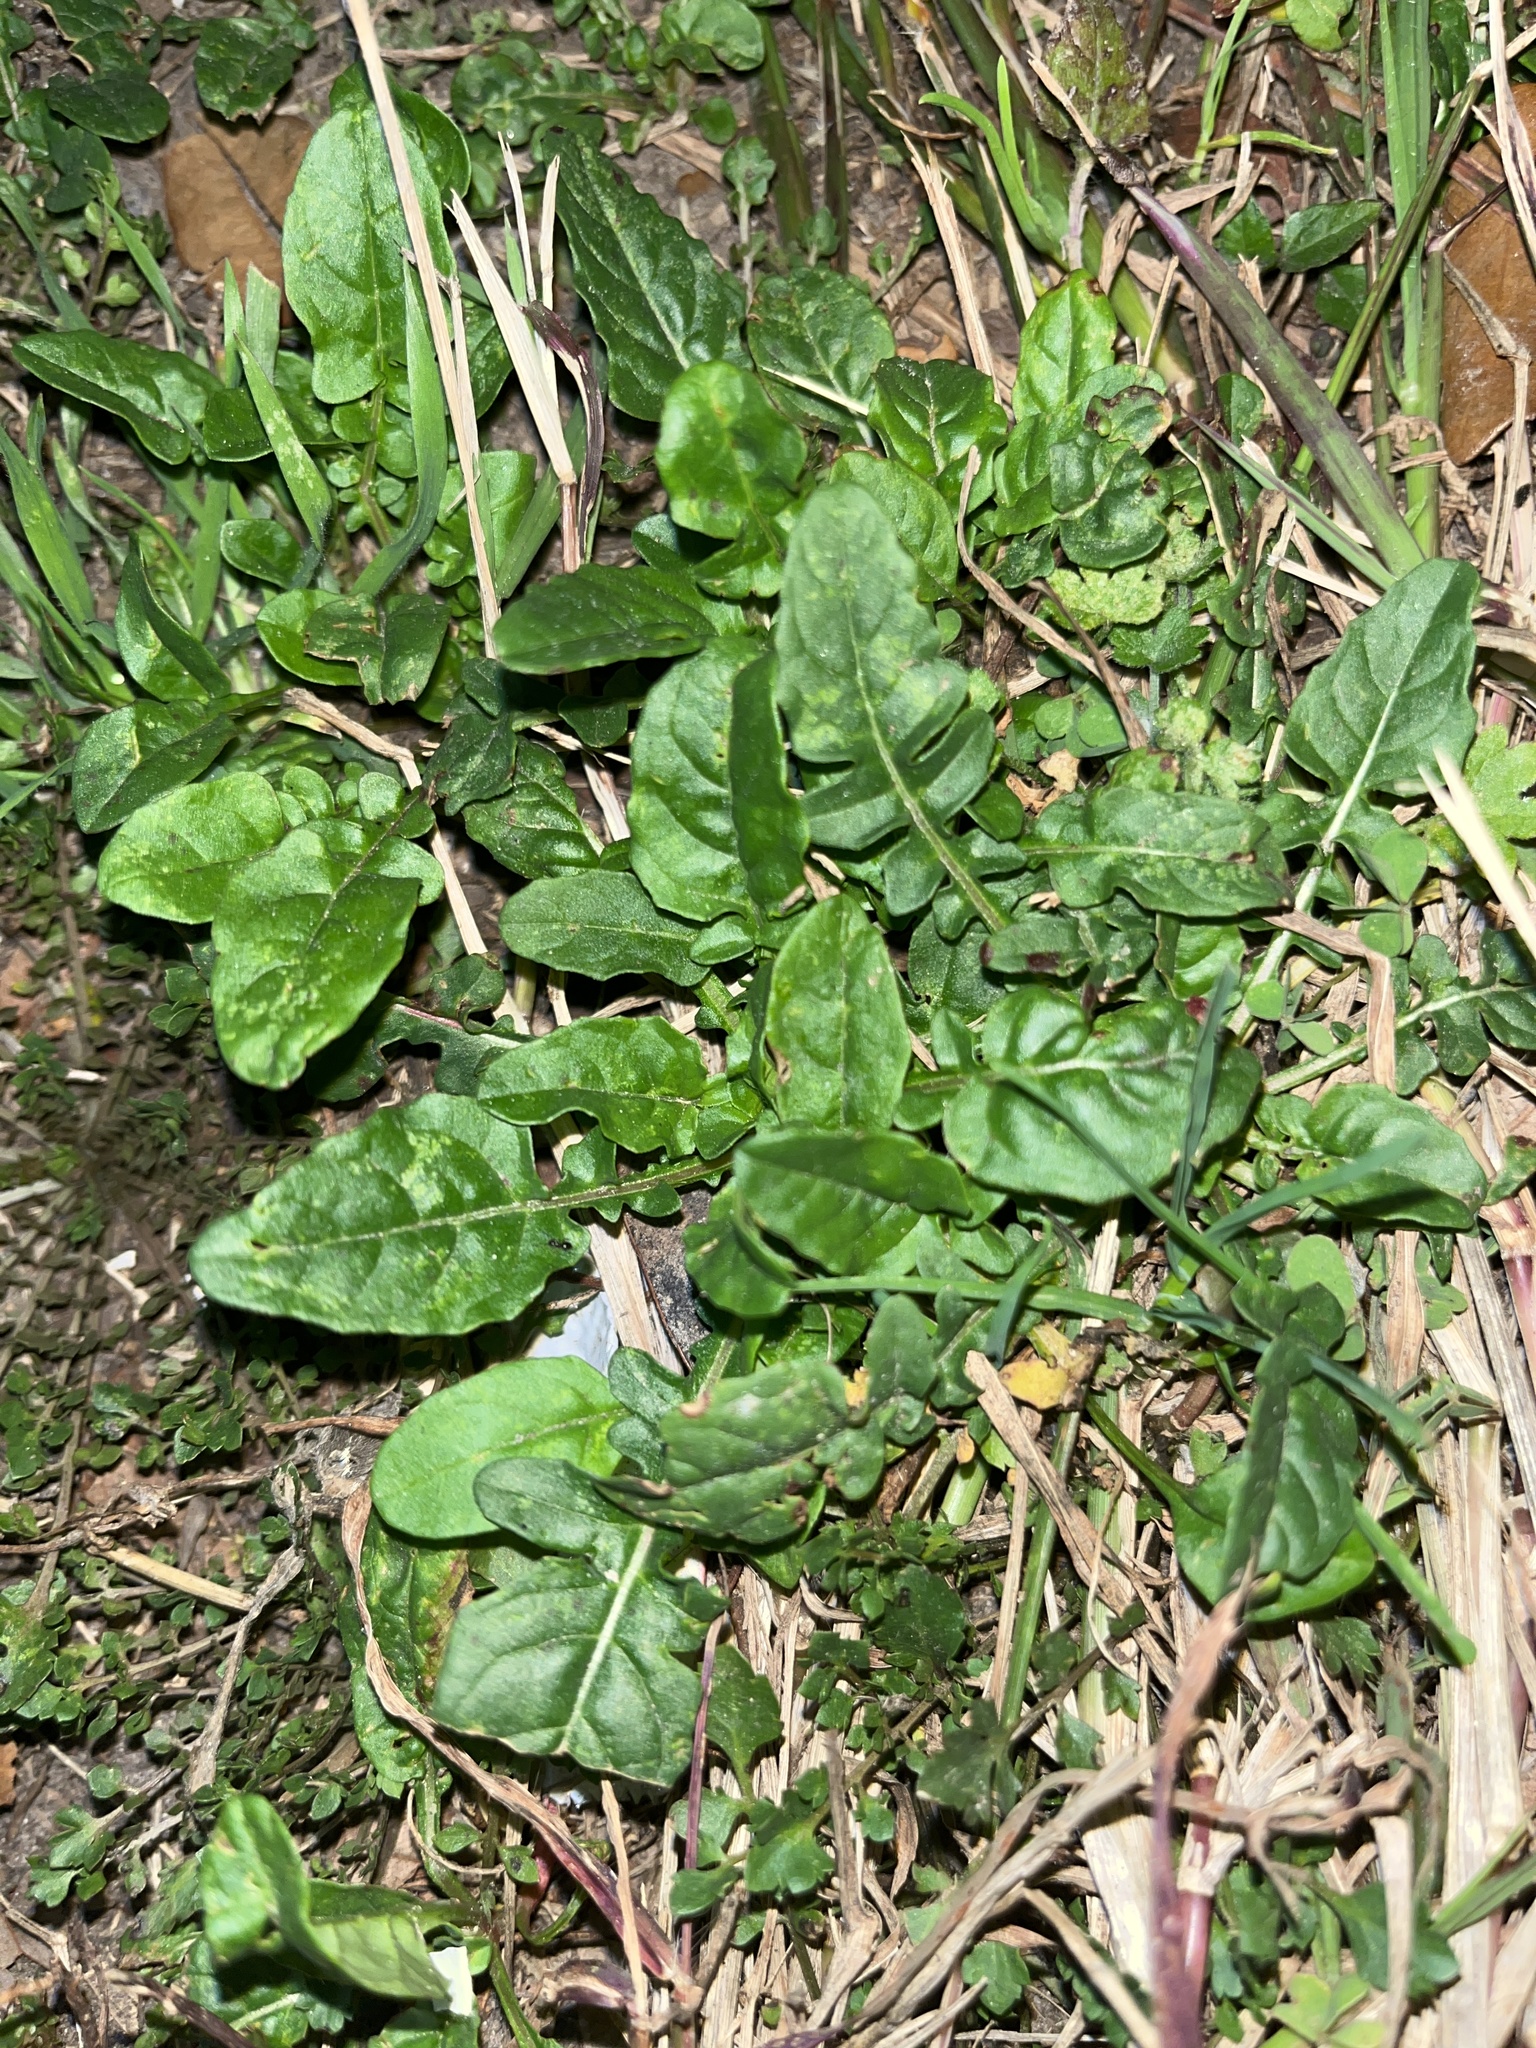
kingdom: Plantae
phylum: Tracheophyta
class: Magnoliopsida
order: Asterales
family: Asteraceae
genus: Youngia
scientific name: Youngia japonica
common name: Oriental false hawksbeard
